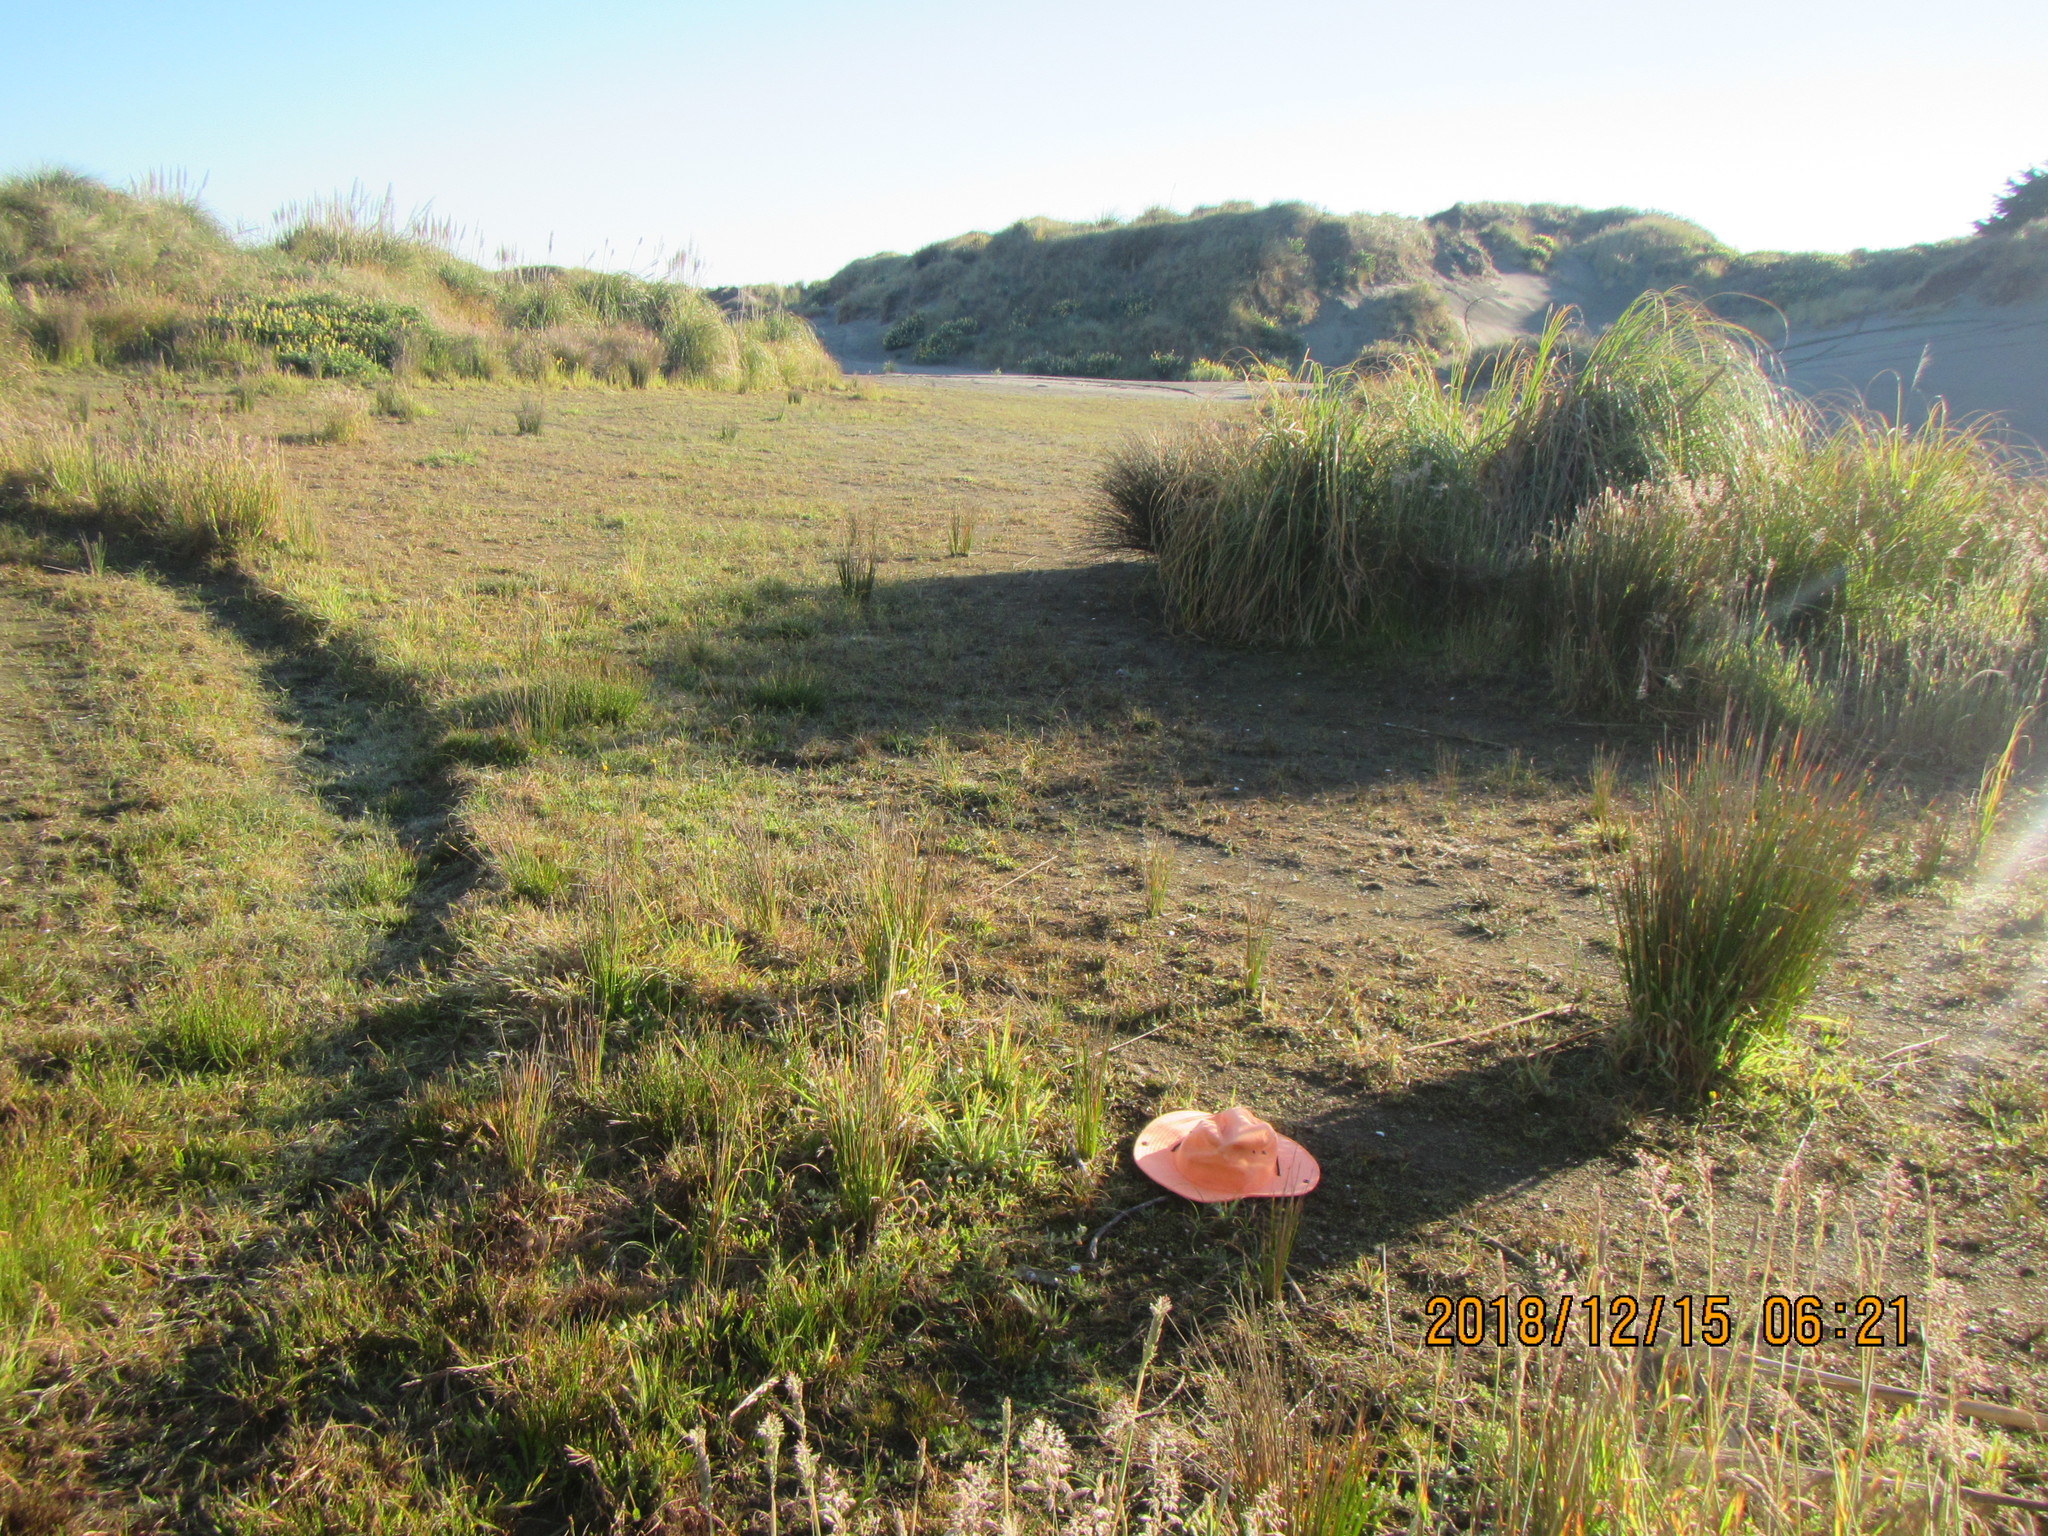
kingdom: Plantae
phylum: Tracheophyta
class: Magnoliopsida
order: Asterales
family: Goodeniaceae
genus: Goodenia
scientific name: Goodenia heenanii
